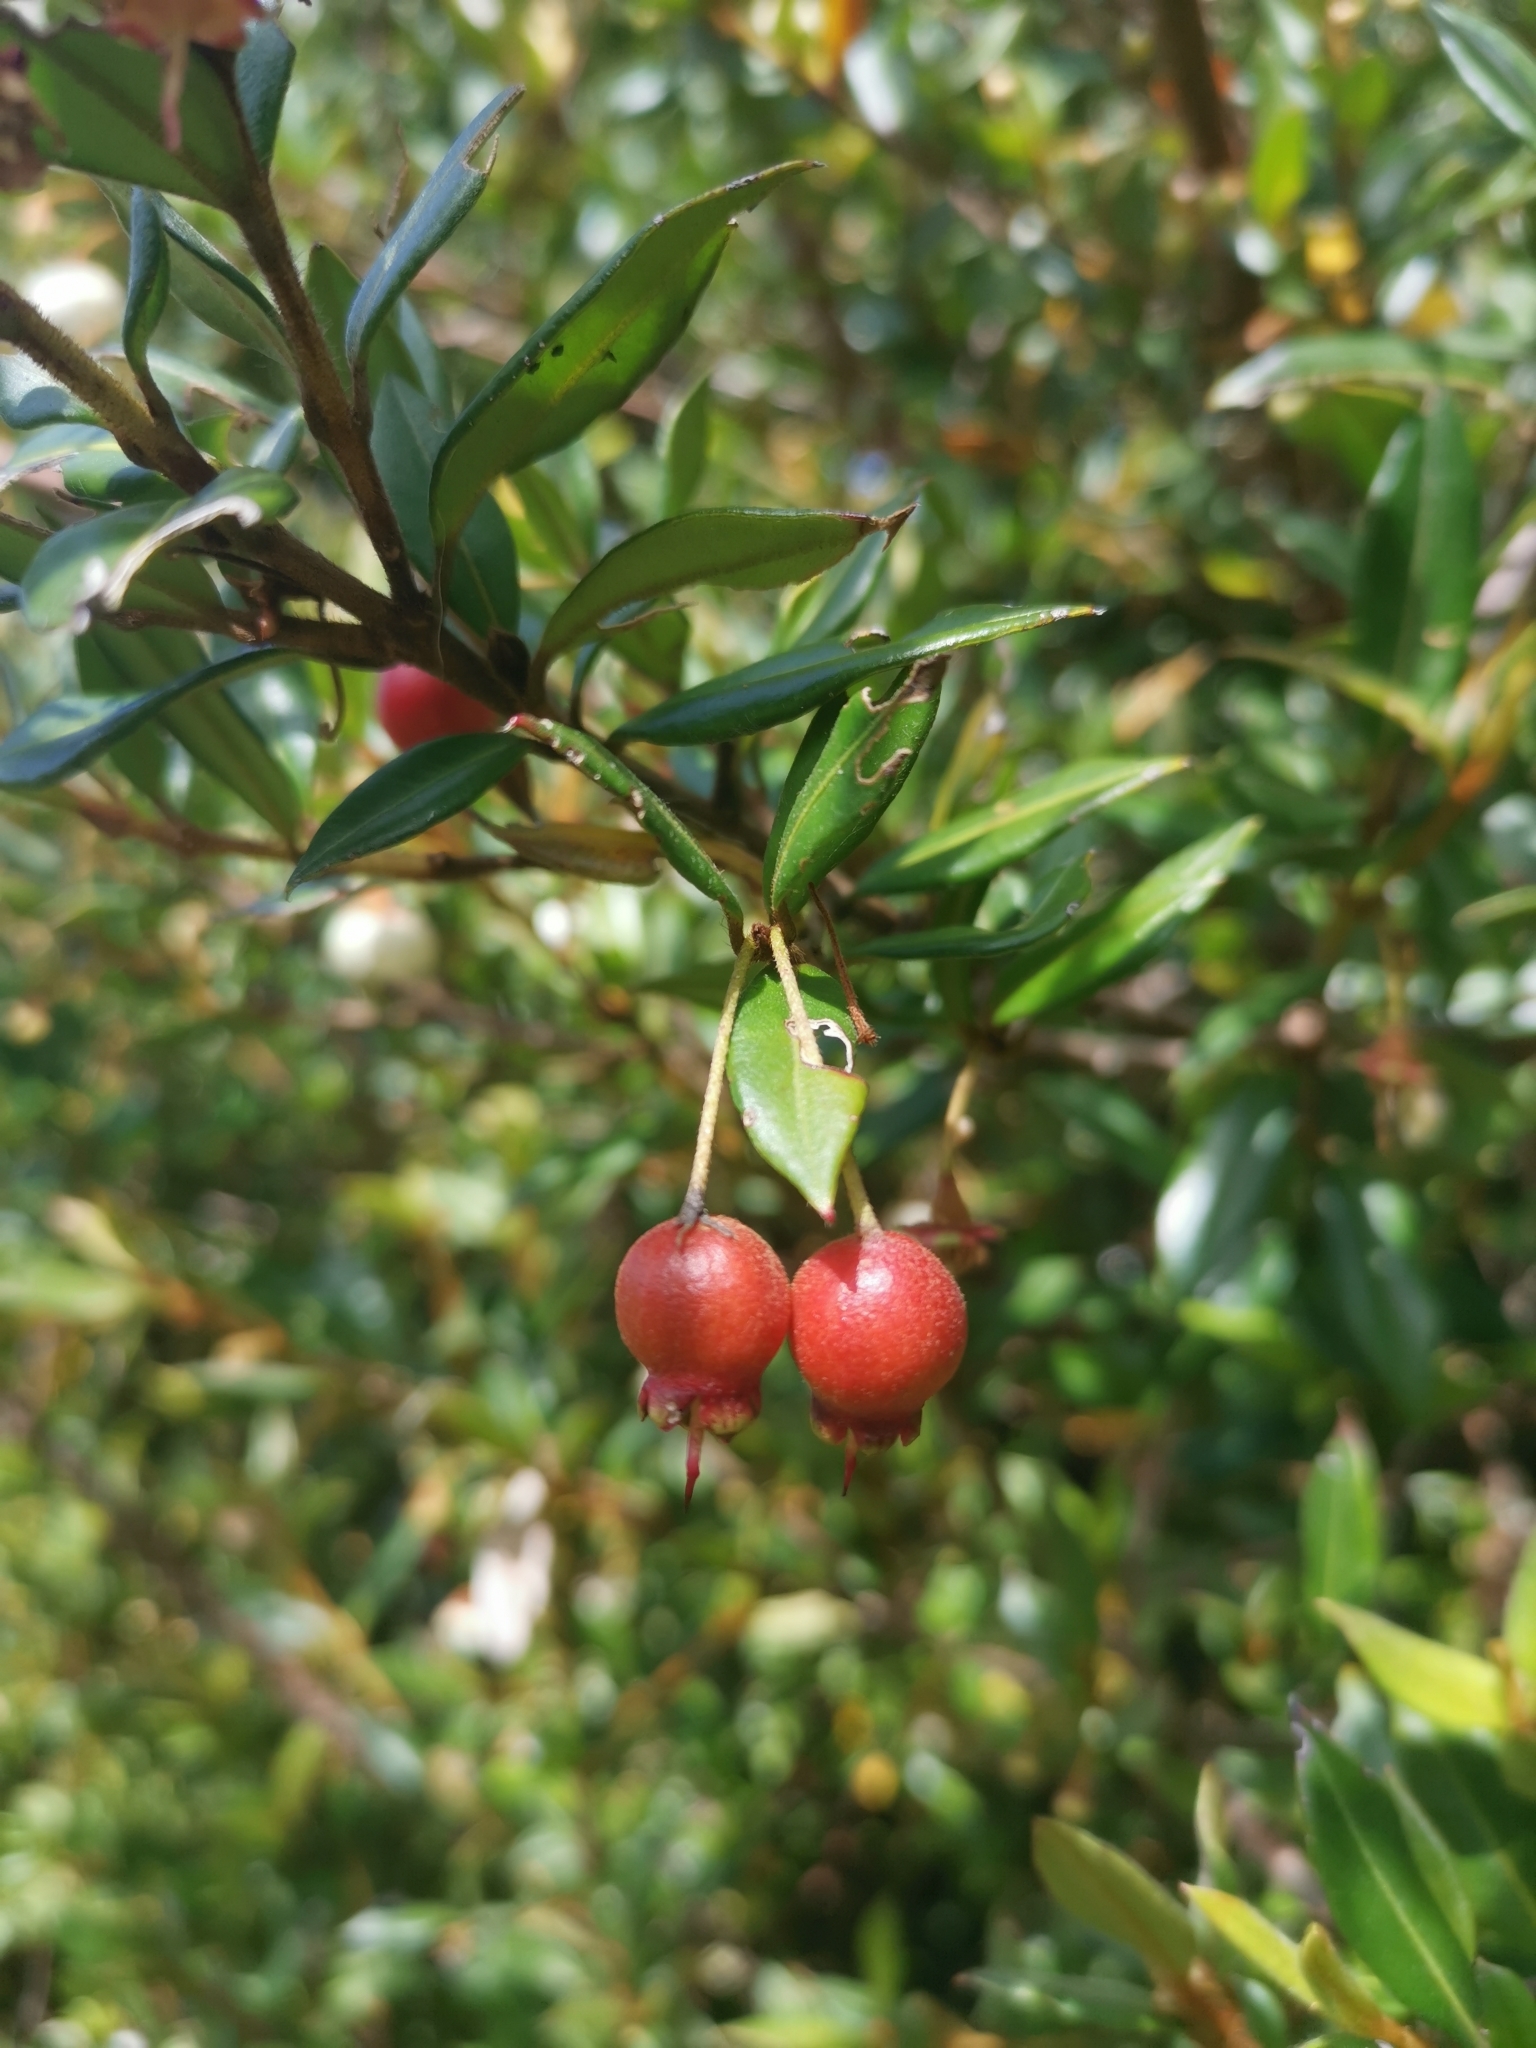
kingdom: Plantae
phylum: Tracheophyta
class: Magnoliopsida
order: Myrtales
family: Myrtaceae
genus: Ugni
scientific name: Ugni candollei
